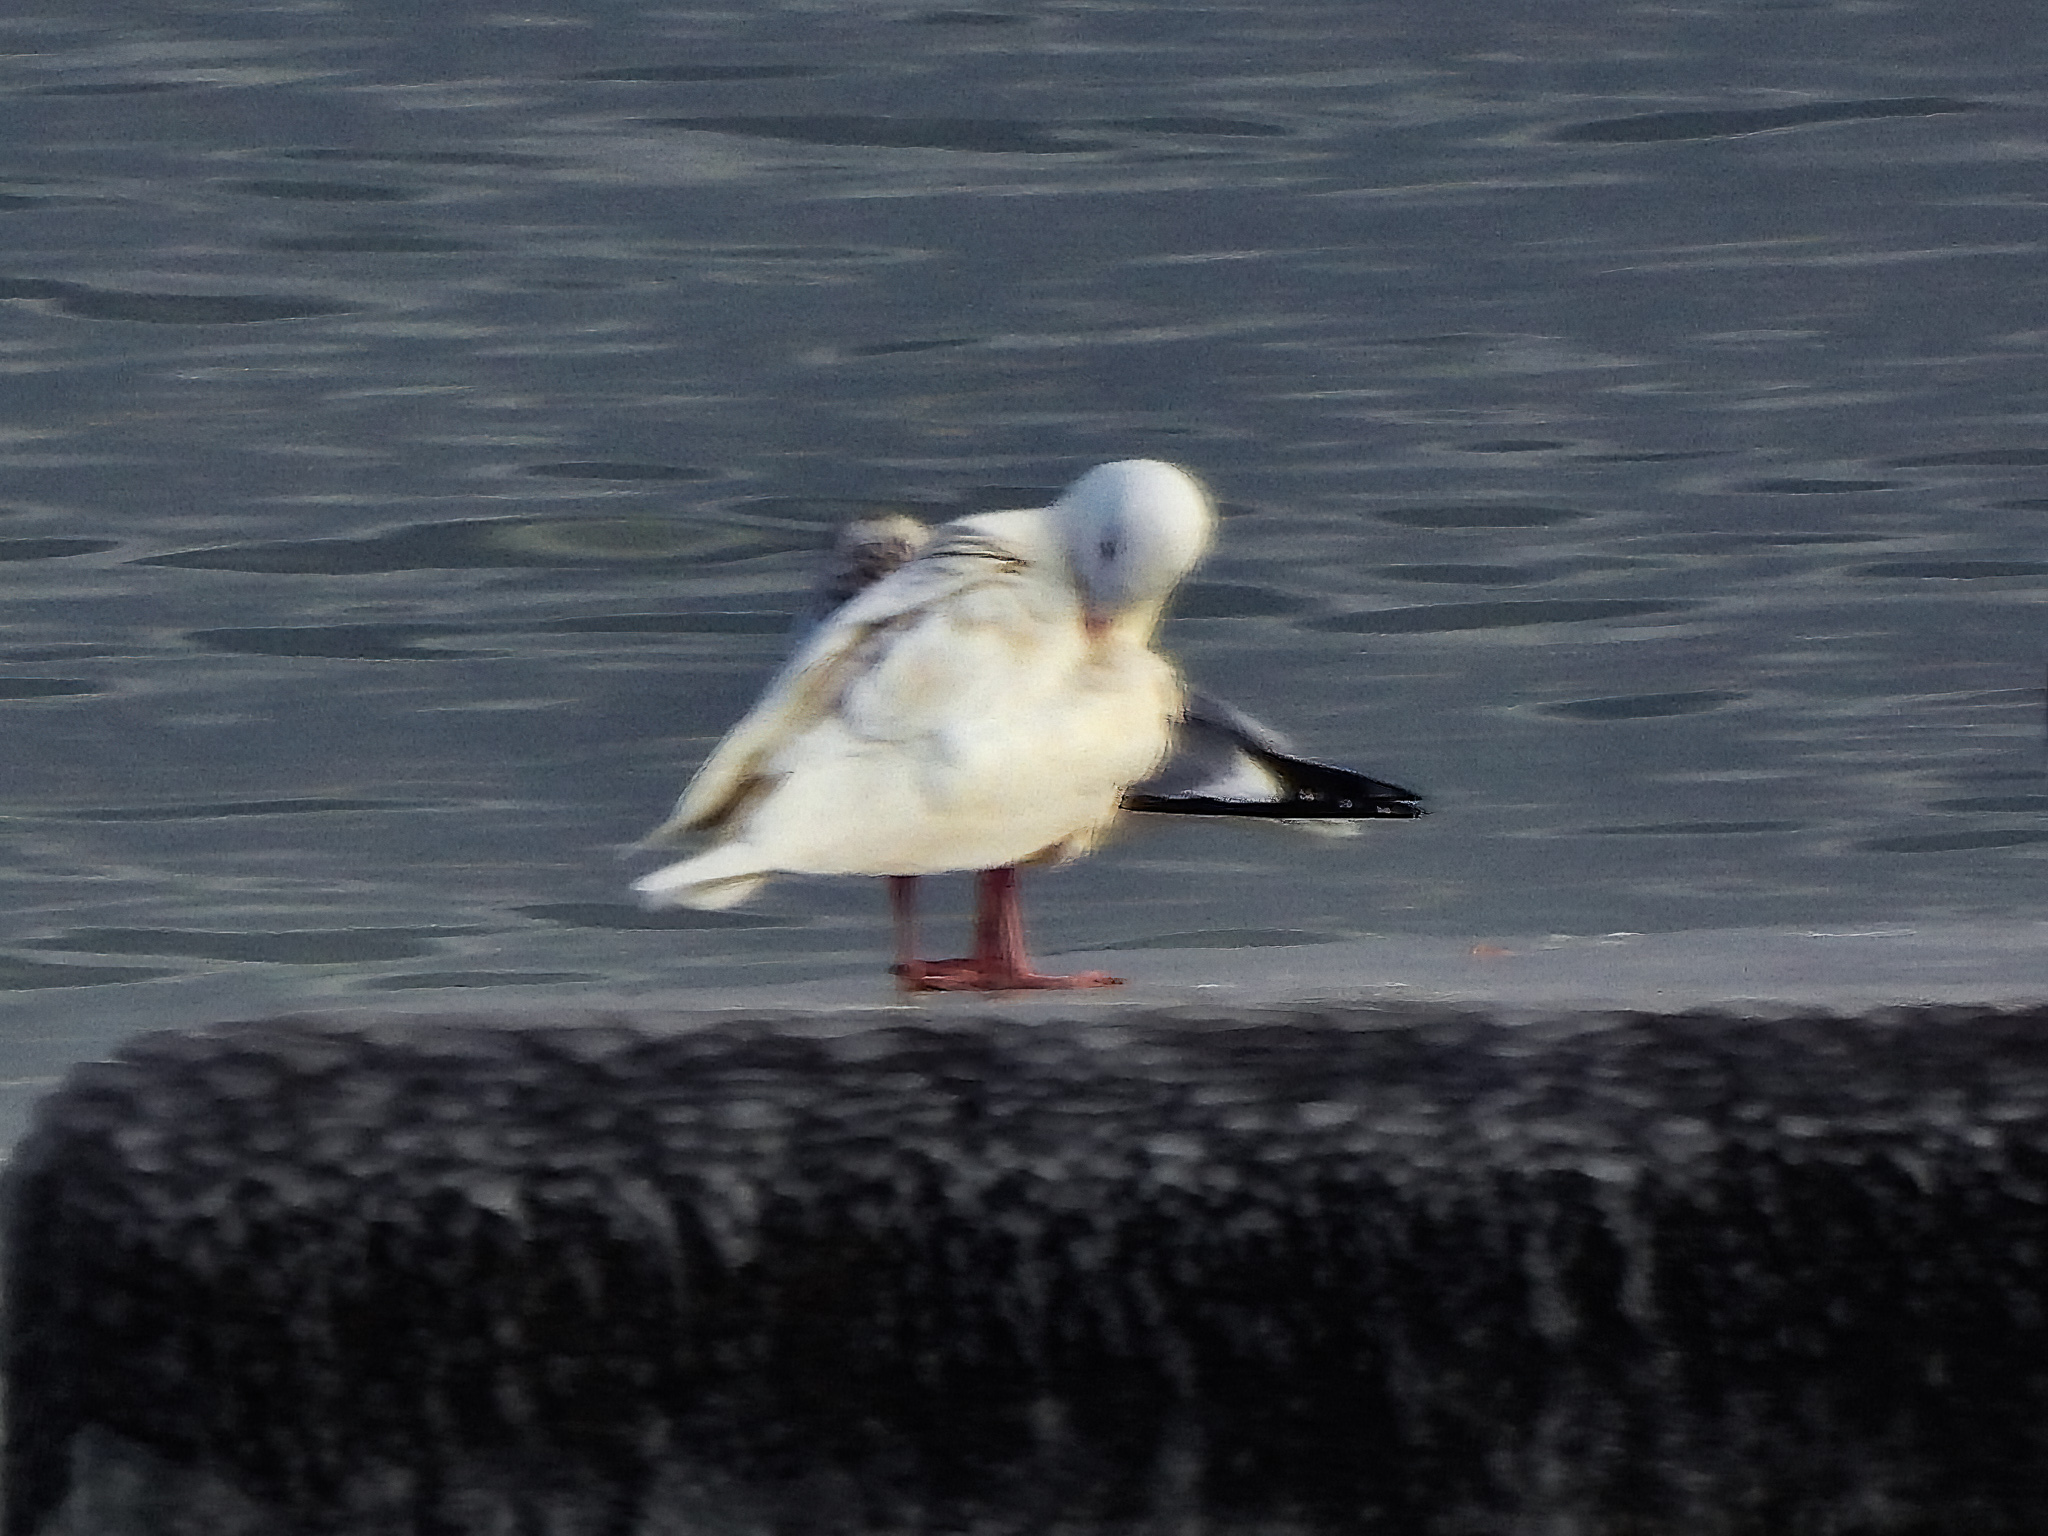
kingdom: Animalia
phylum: Chordata
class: Aves
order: Charadriiformes
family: Laridae
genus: Larus
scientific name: Larus hyperboreus
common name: Glaucous gull
